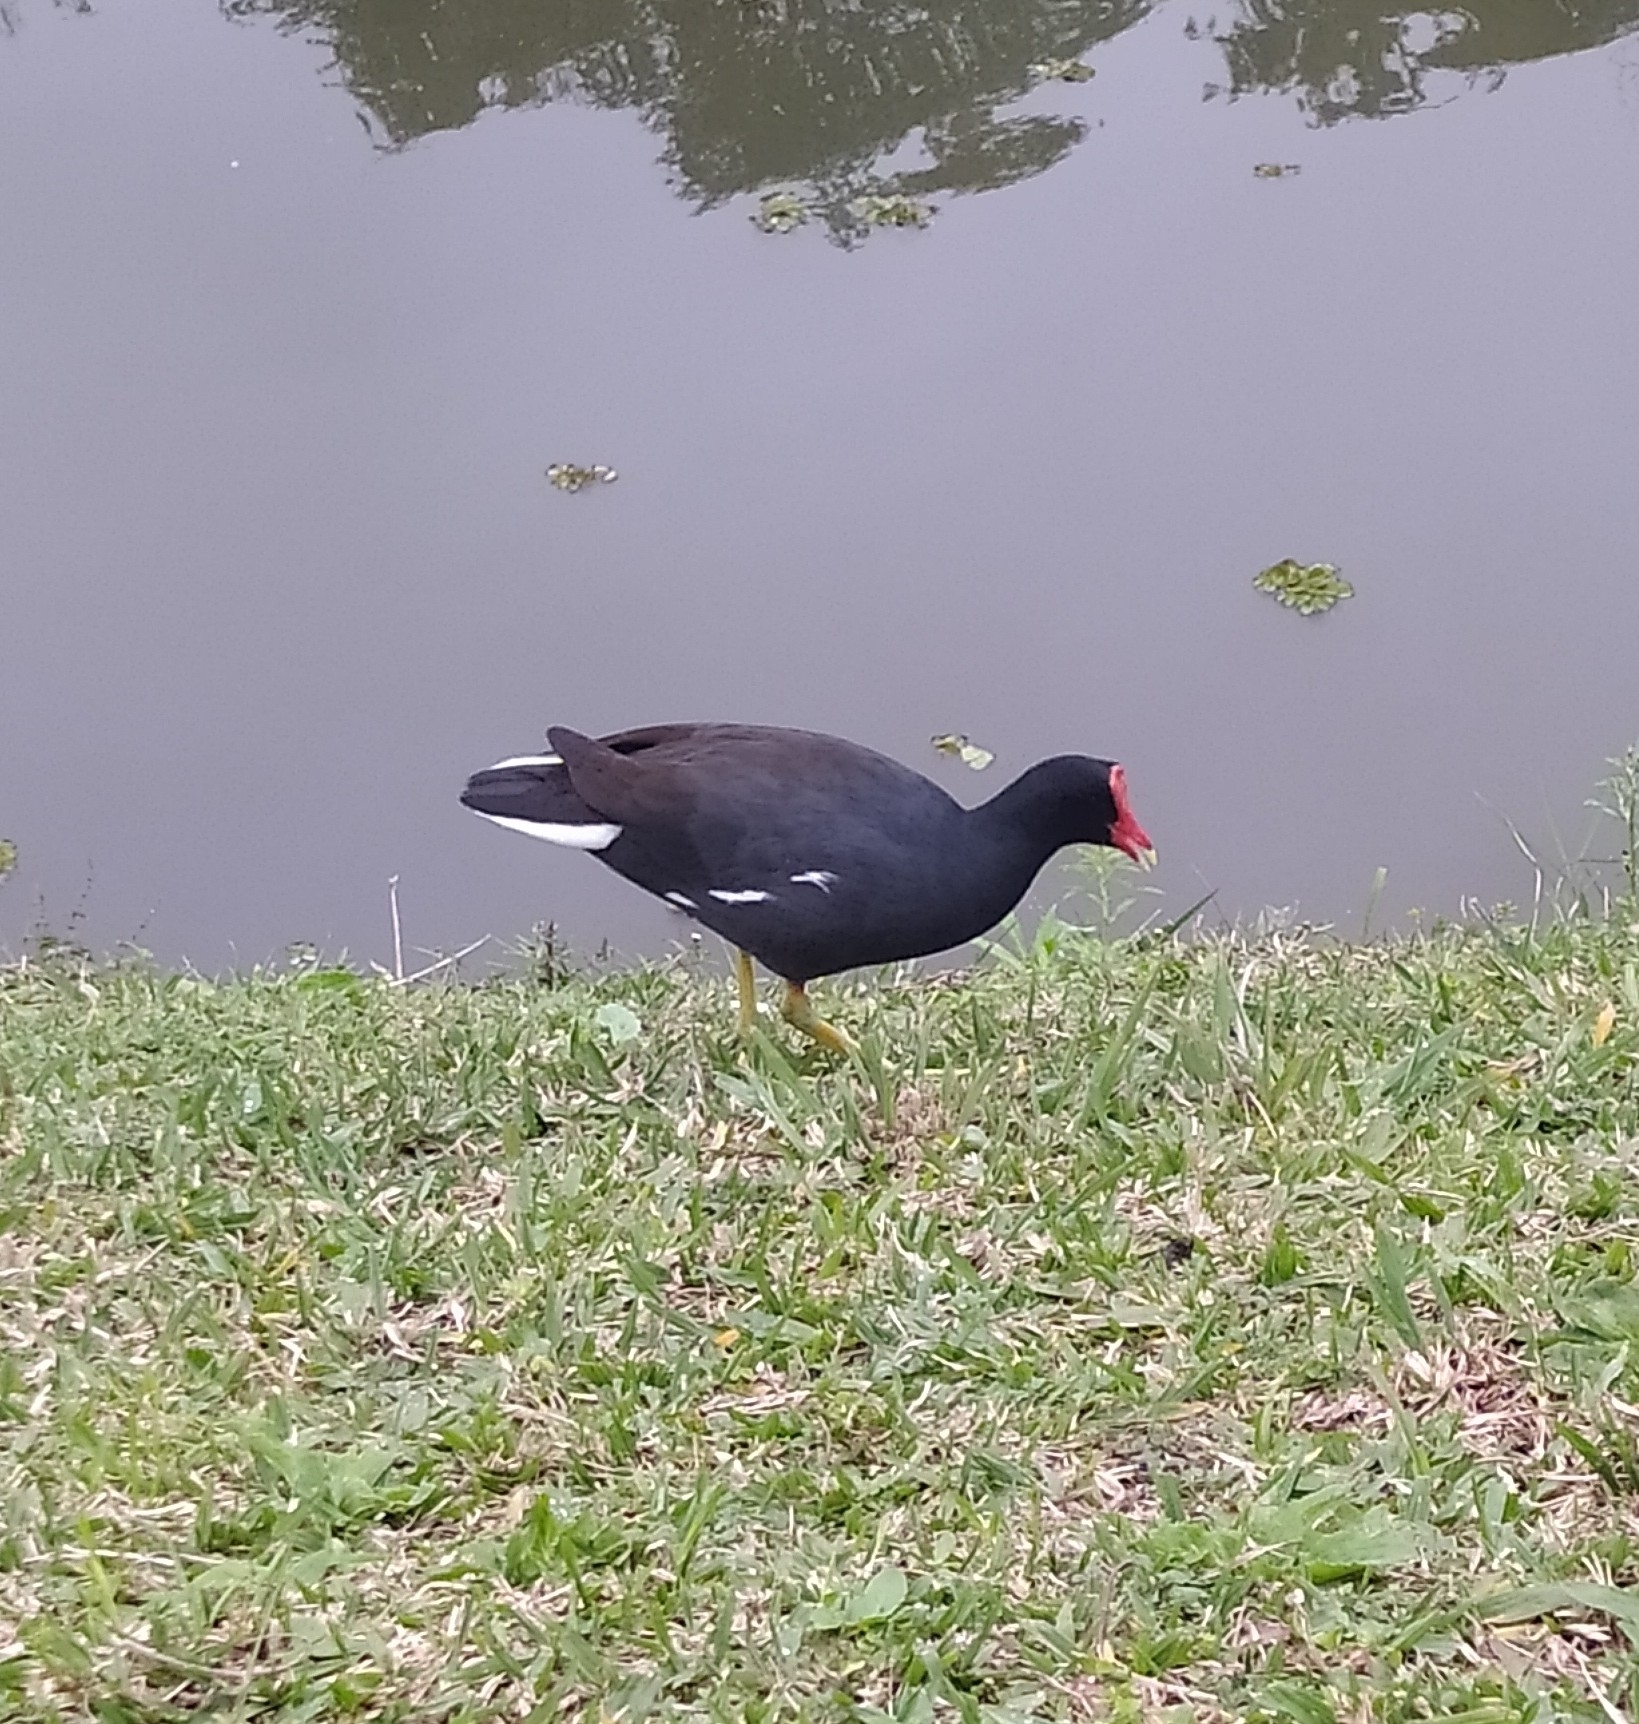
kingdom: Animalia
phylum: Chordata
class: Aves
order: Gruiformes
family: Rallidae
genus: Gallinula
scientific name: Gallinula chloropus
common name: Common moorhen
